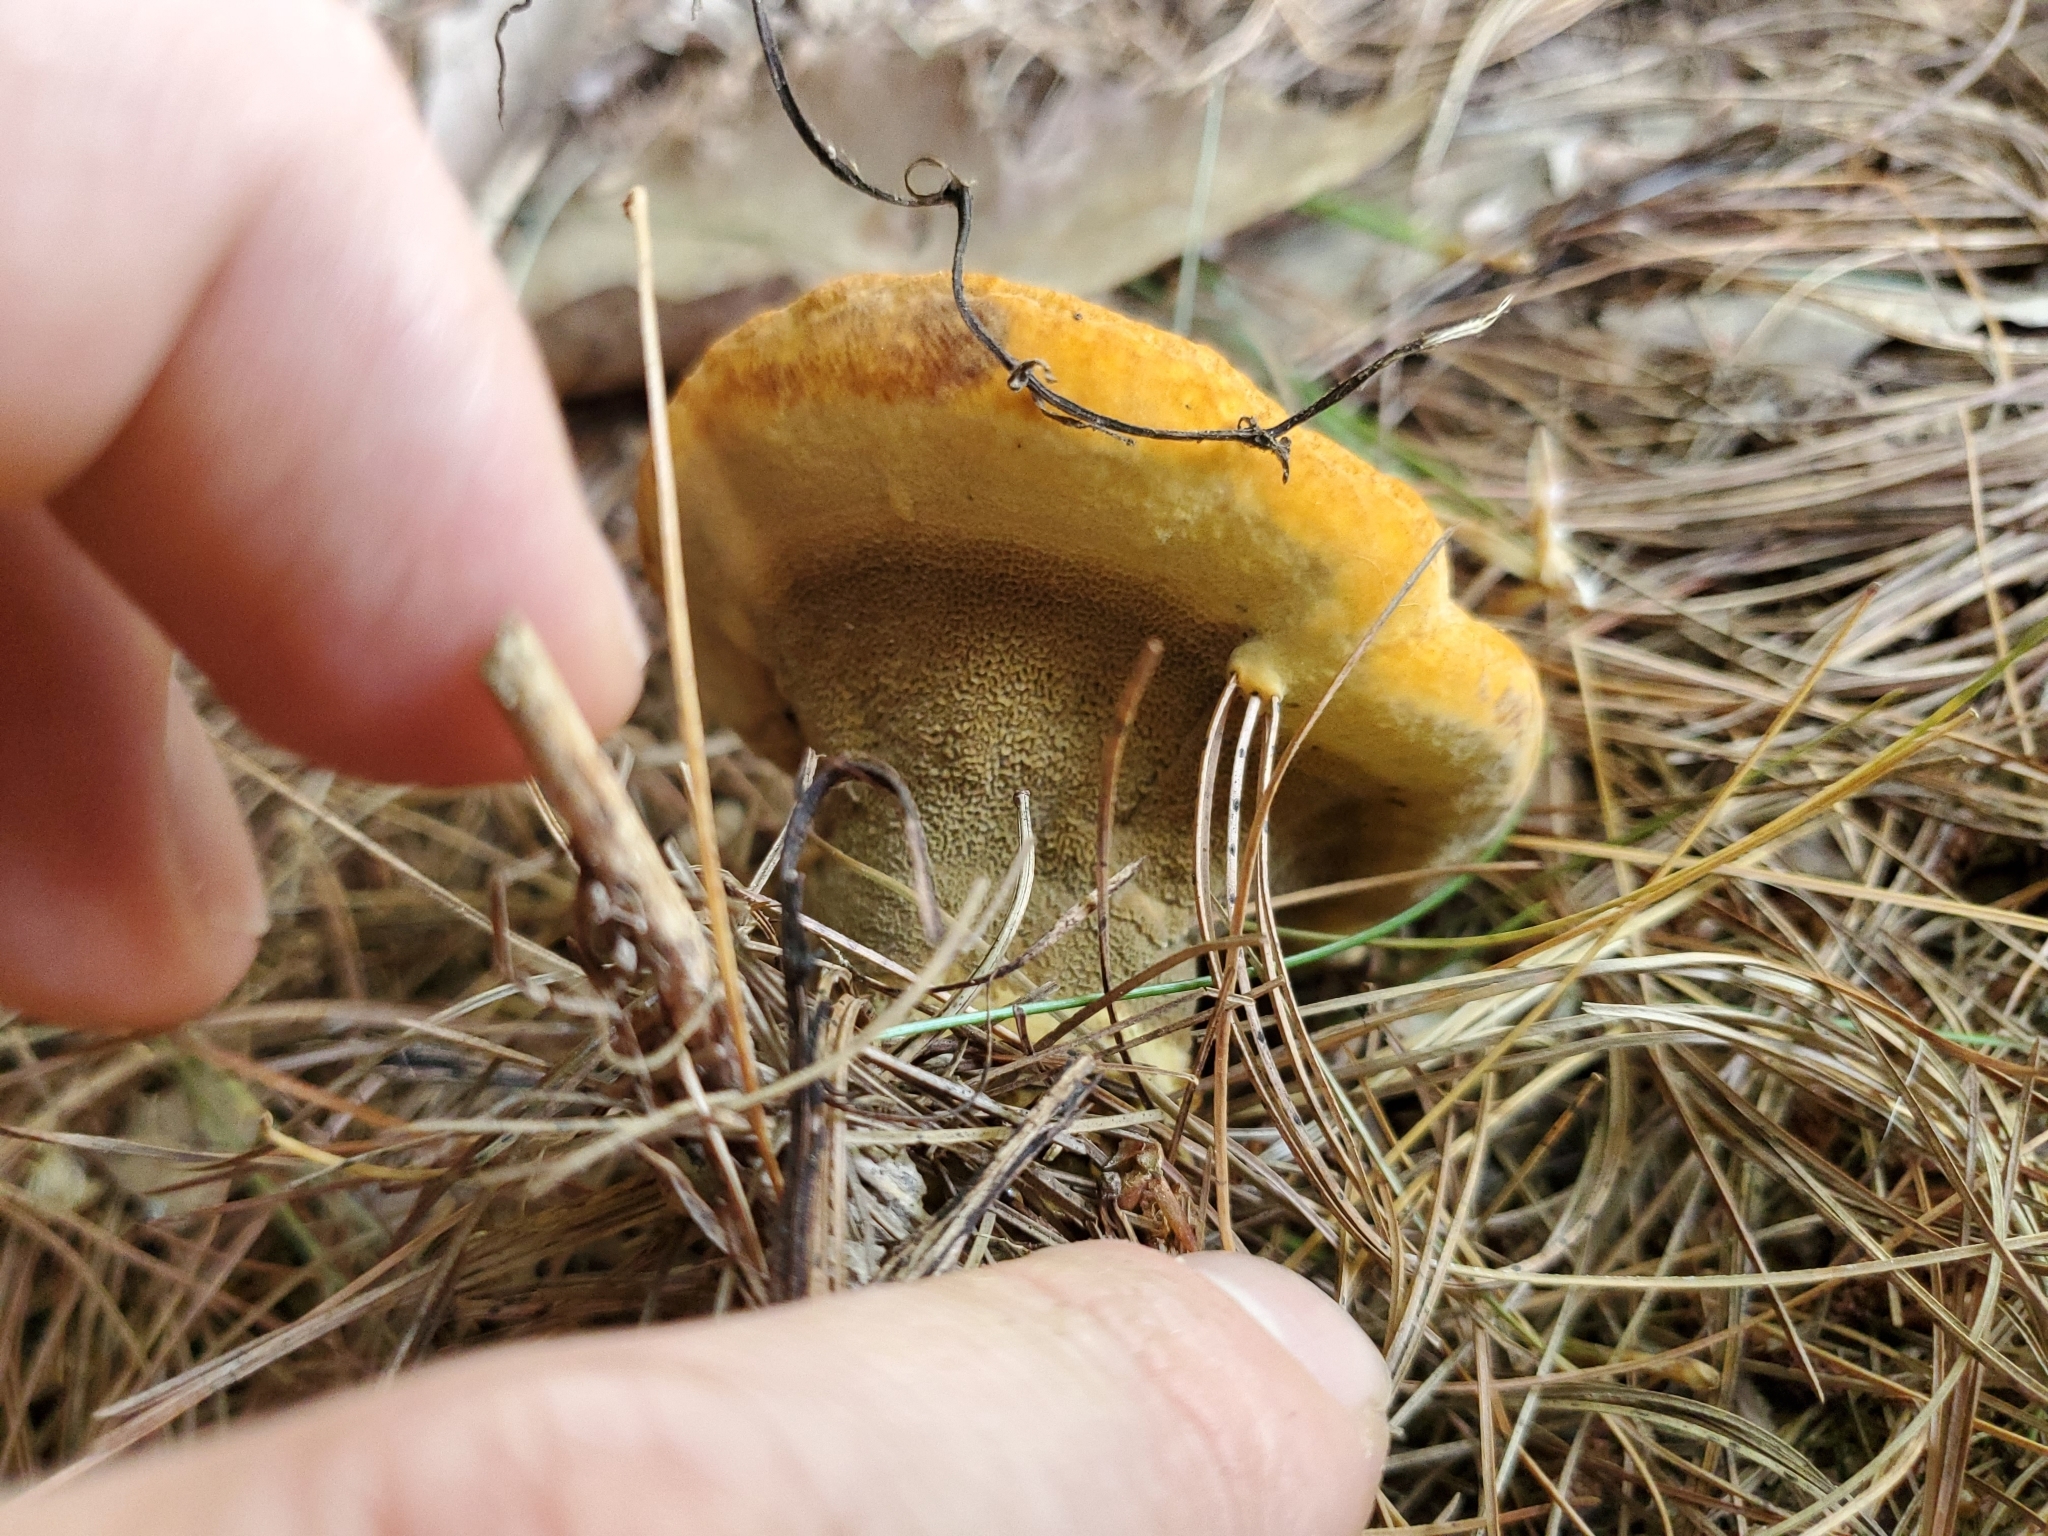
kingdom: Fungi
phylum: Basidiomycota
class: Agaricomycetes
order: Polyporales
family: Laetiporaceae
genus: Phaeolus
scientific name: Phaeolus schweinitzii
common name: Dyer's mazegill
